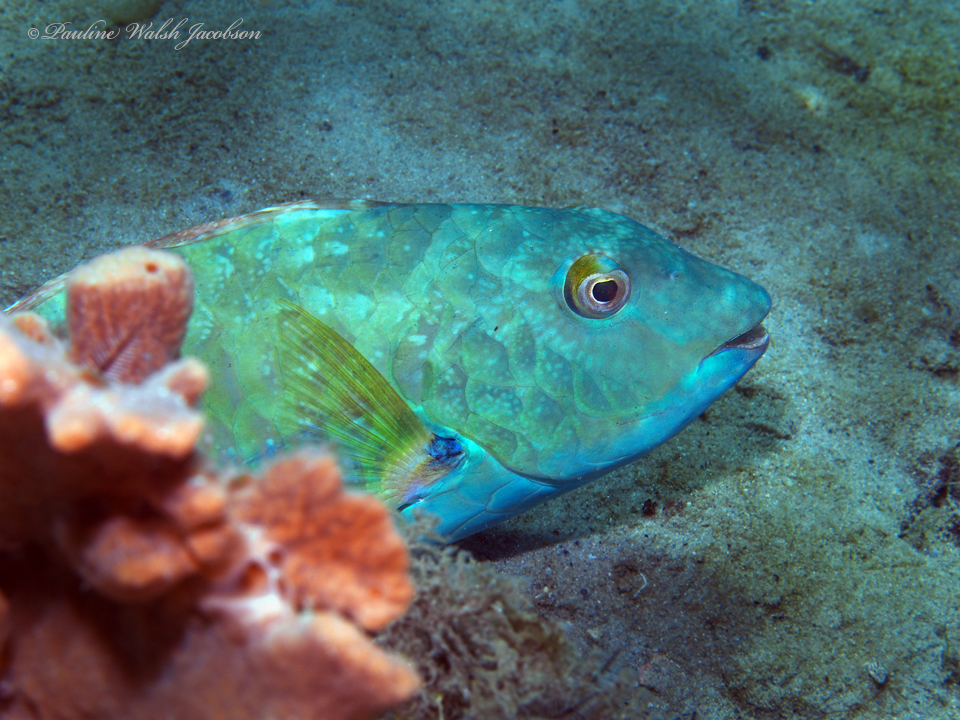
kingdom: Animalia
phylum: Chordata
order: Perciformes
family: Scaridae
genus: Sparisoma
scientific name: Sparisoma chrysopterum
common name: Redtail parrotfish
